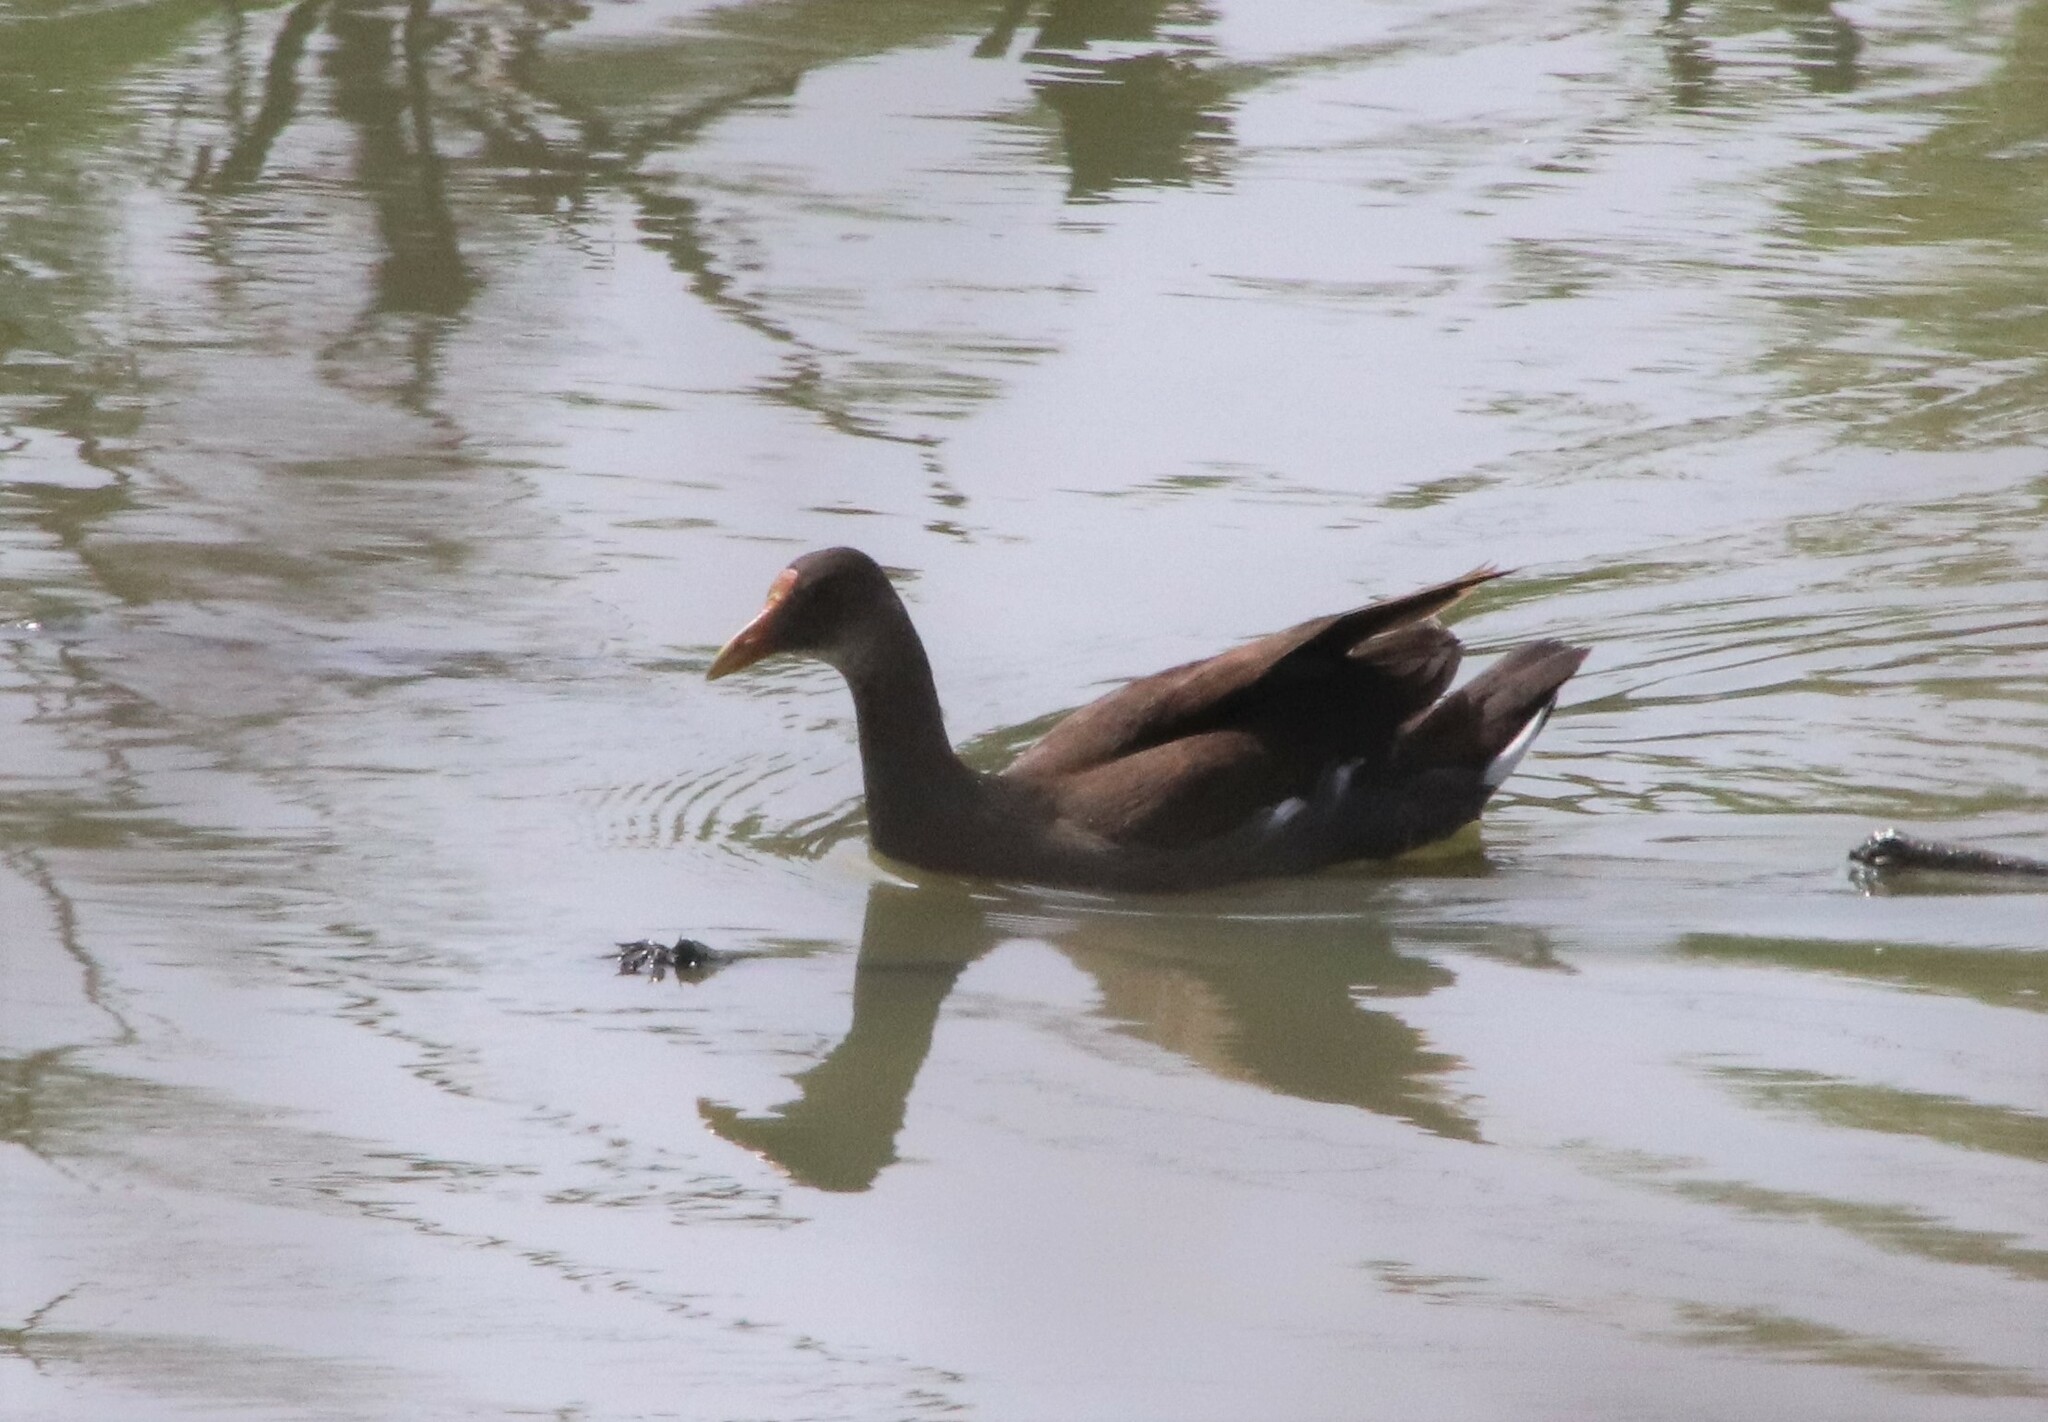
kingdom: Animalia
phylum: Chordata
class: Aves
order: Gruiformes
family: Rallidae
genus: Gallinula
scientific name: Gallinula chloropus
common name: Common moorhen
